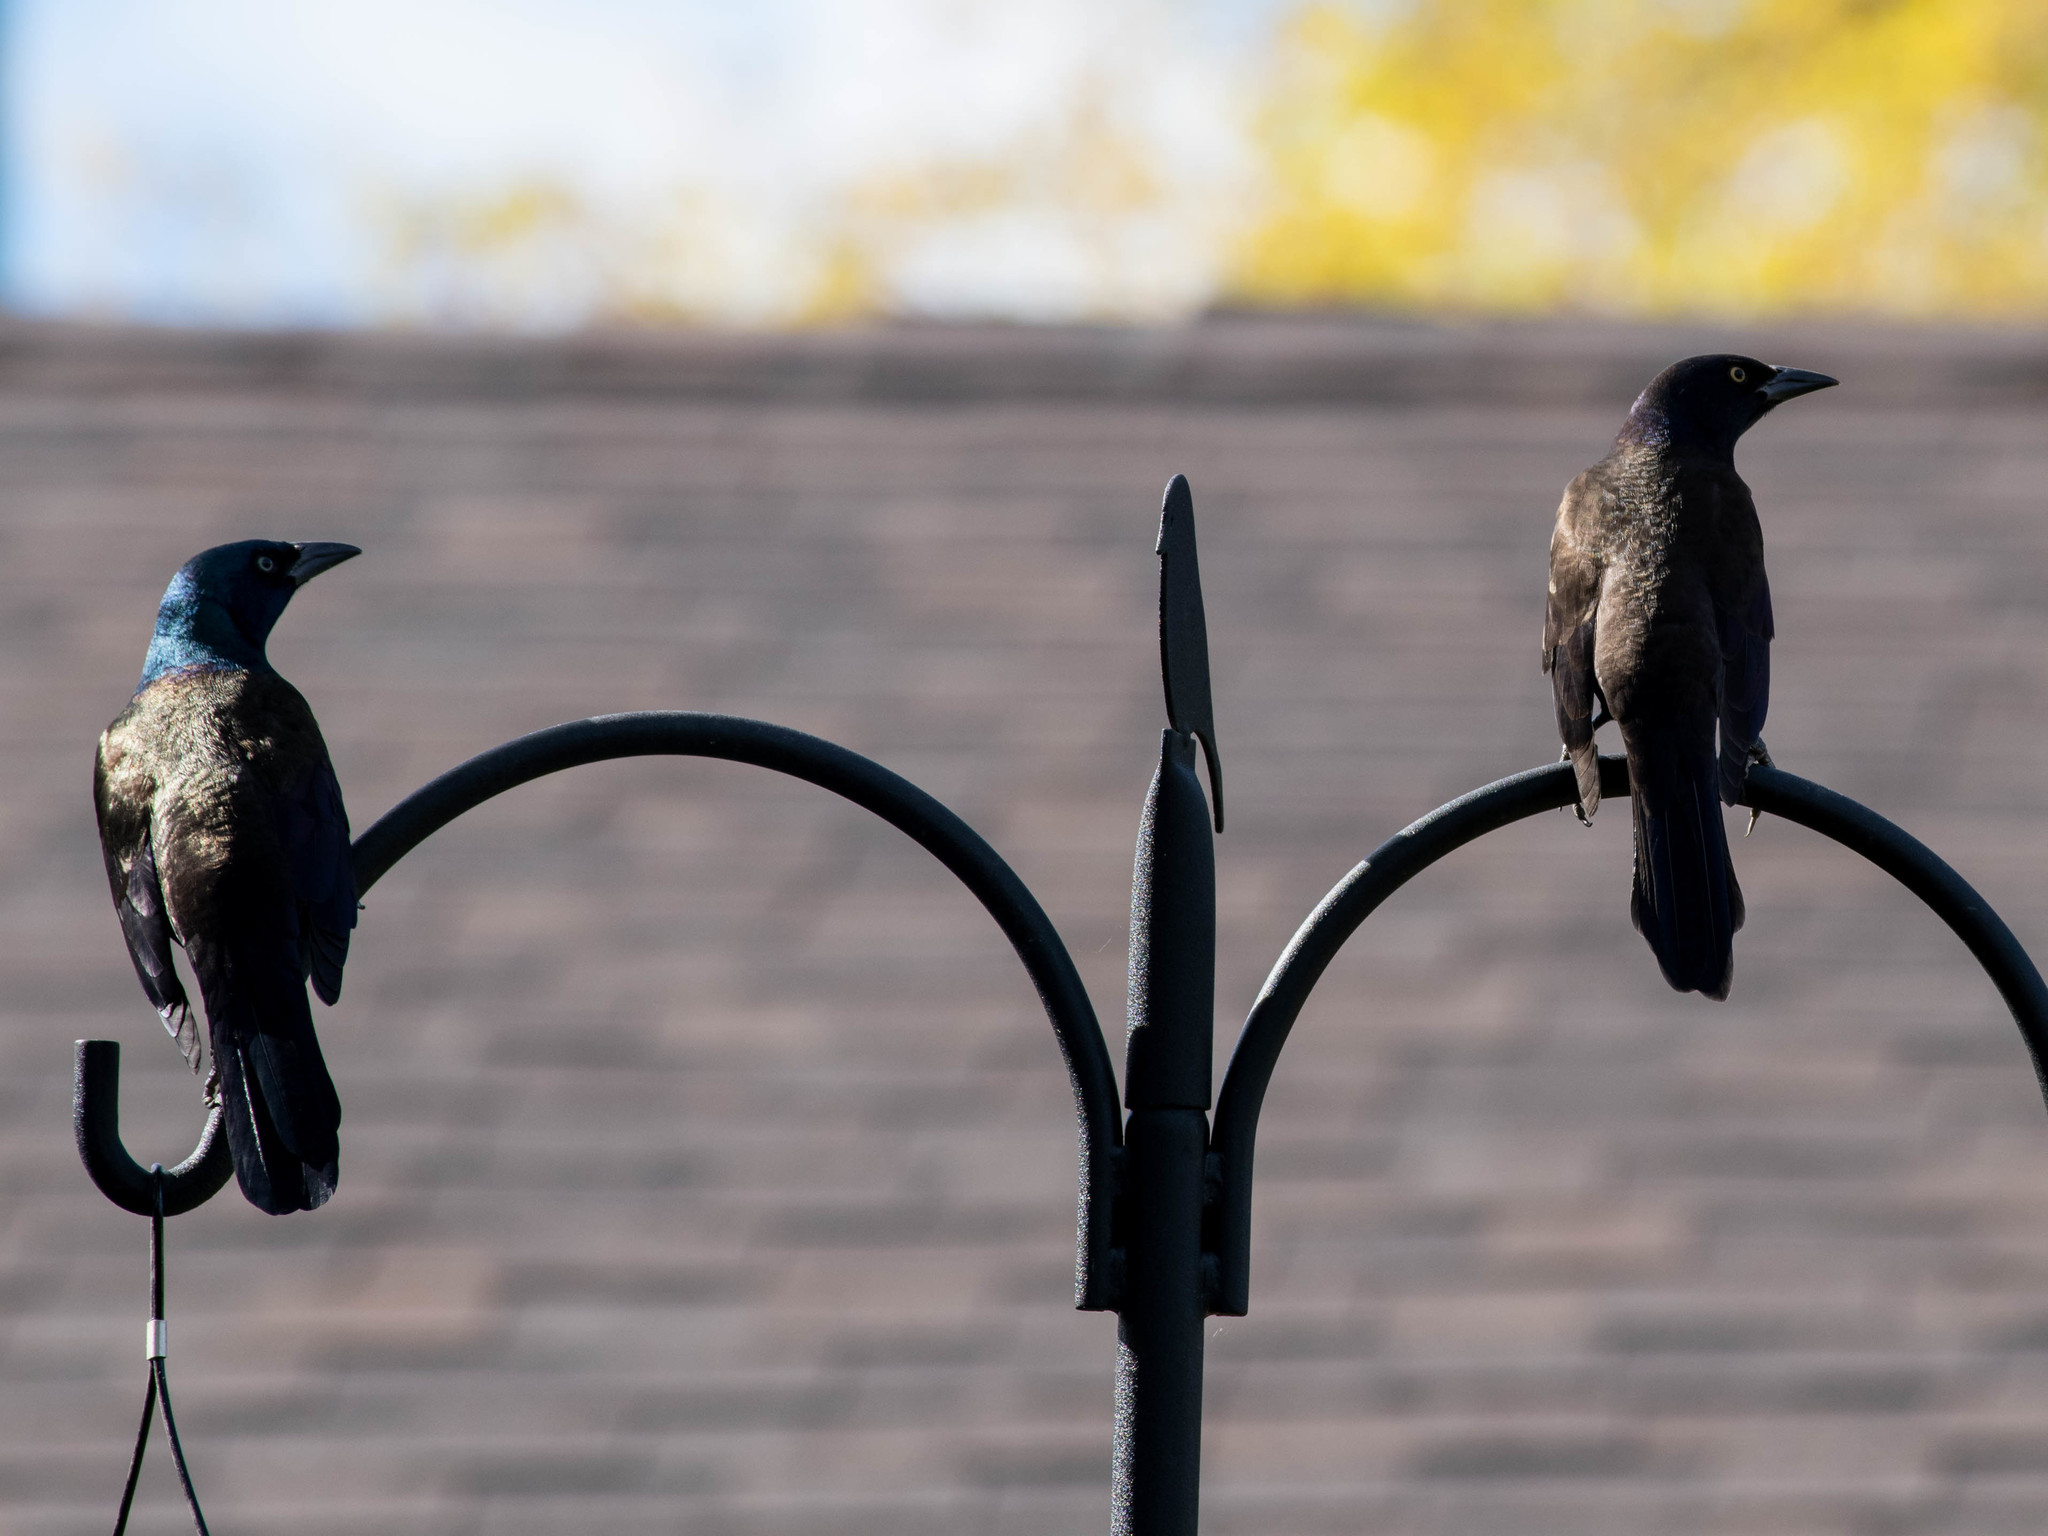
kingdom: Animalia
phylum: Chordata
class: Aves
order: Passeriformes
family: Icteridae
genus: Quiscalus
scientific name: Quiscalus quiscula
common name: Common grackle
